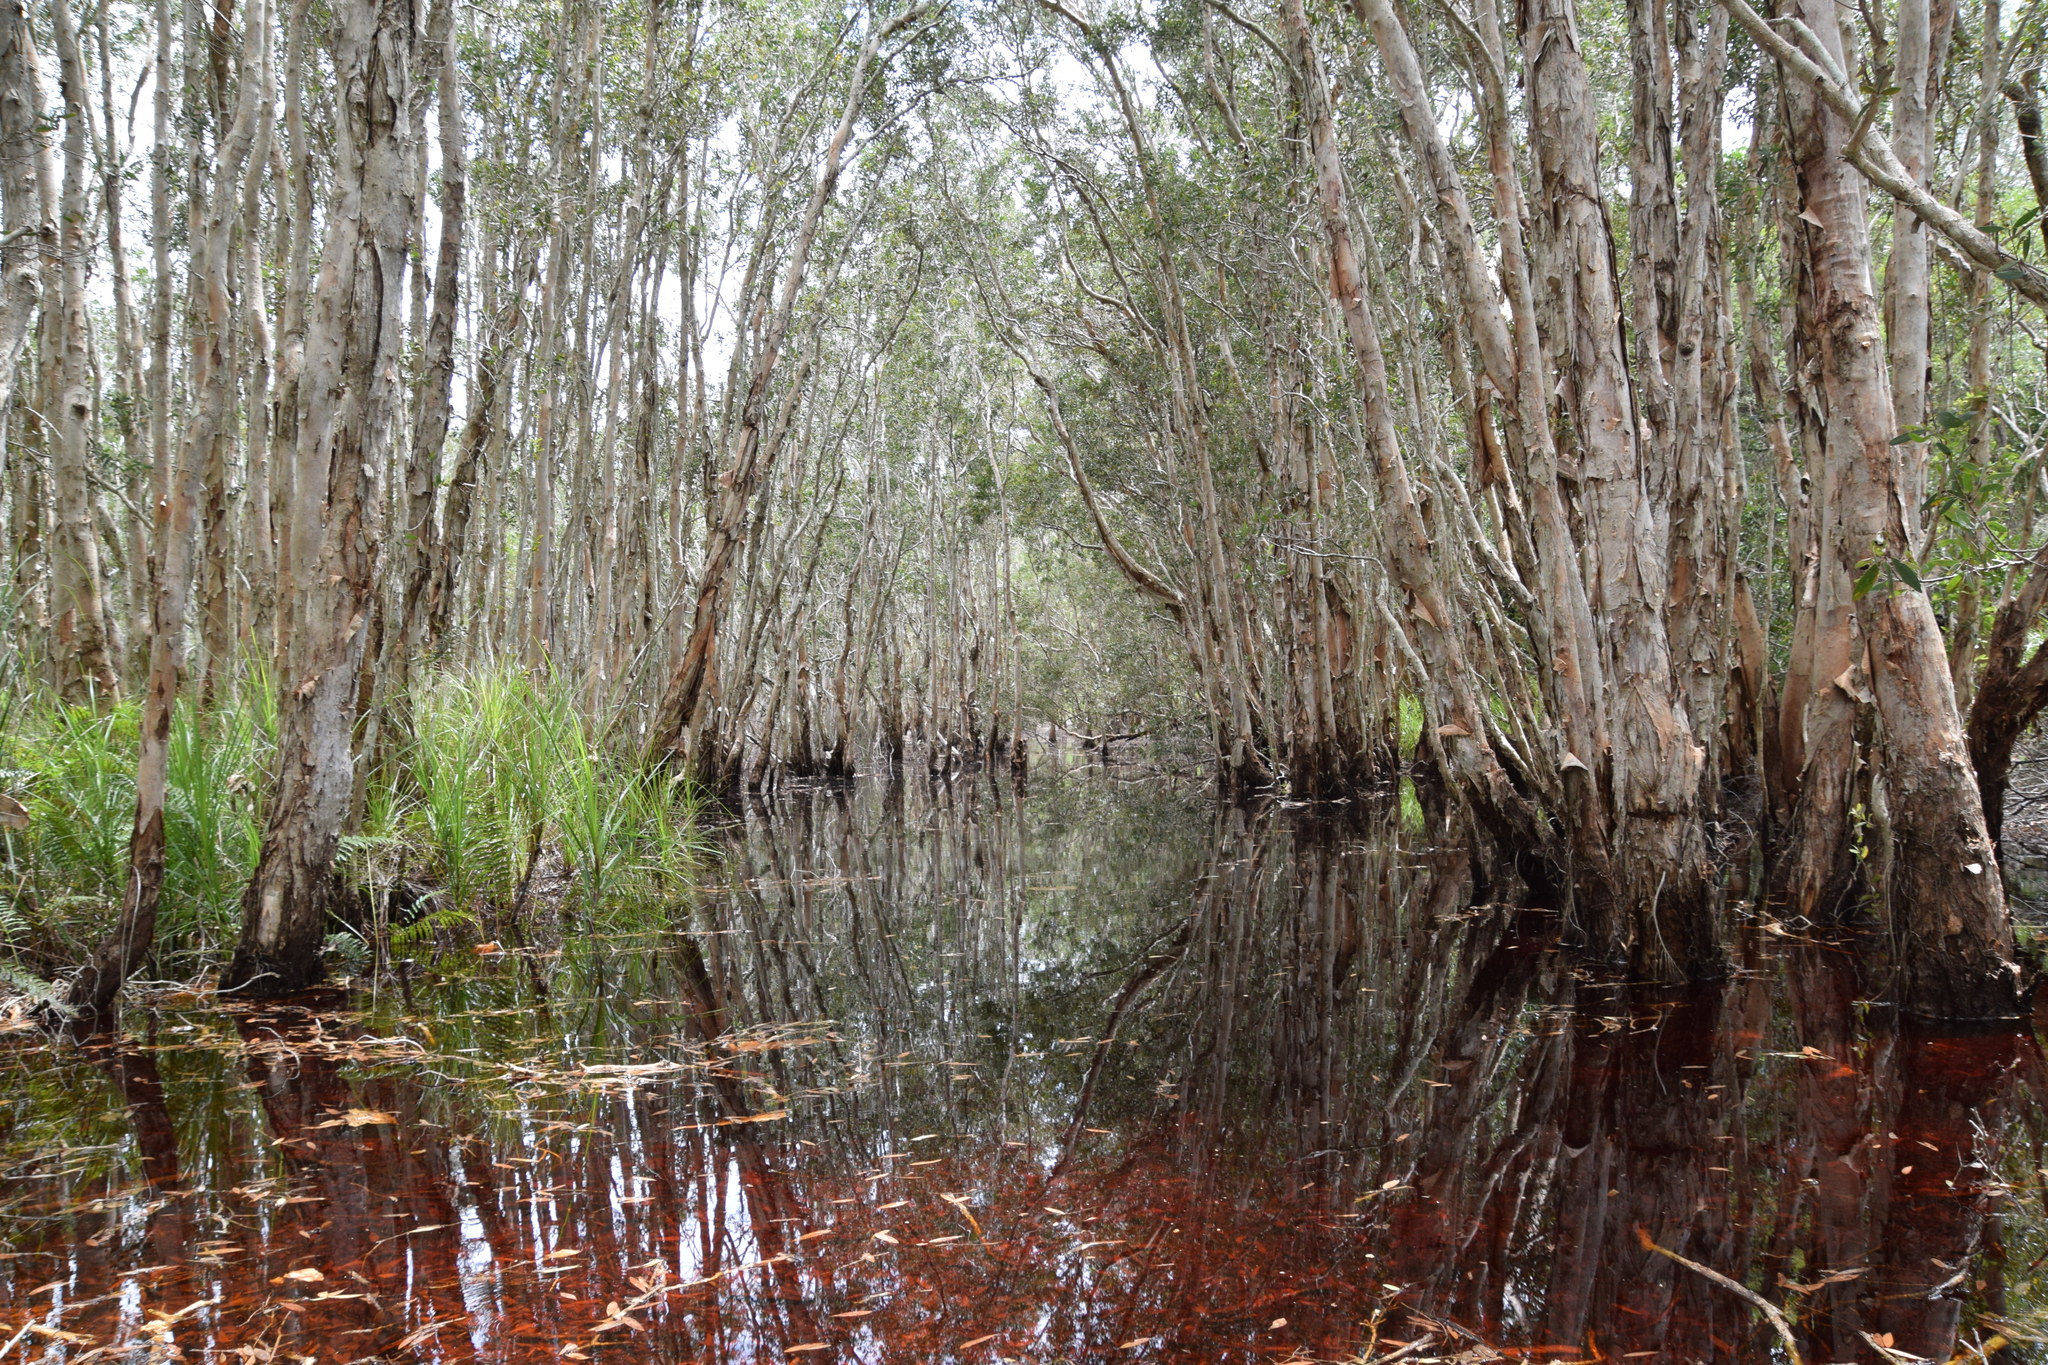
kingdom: Plantae
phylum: Tracheophyta
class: Magnoliopsida
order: Myrtales
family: Myrtaceae
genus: Melaleuca
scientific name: Melaleuca quinquenervia
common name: Punktree
